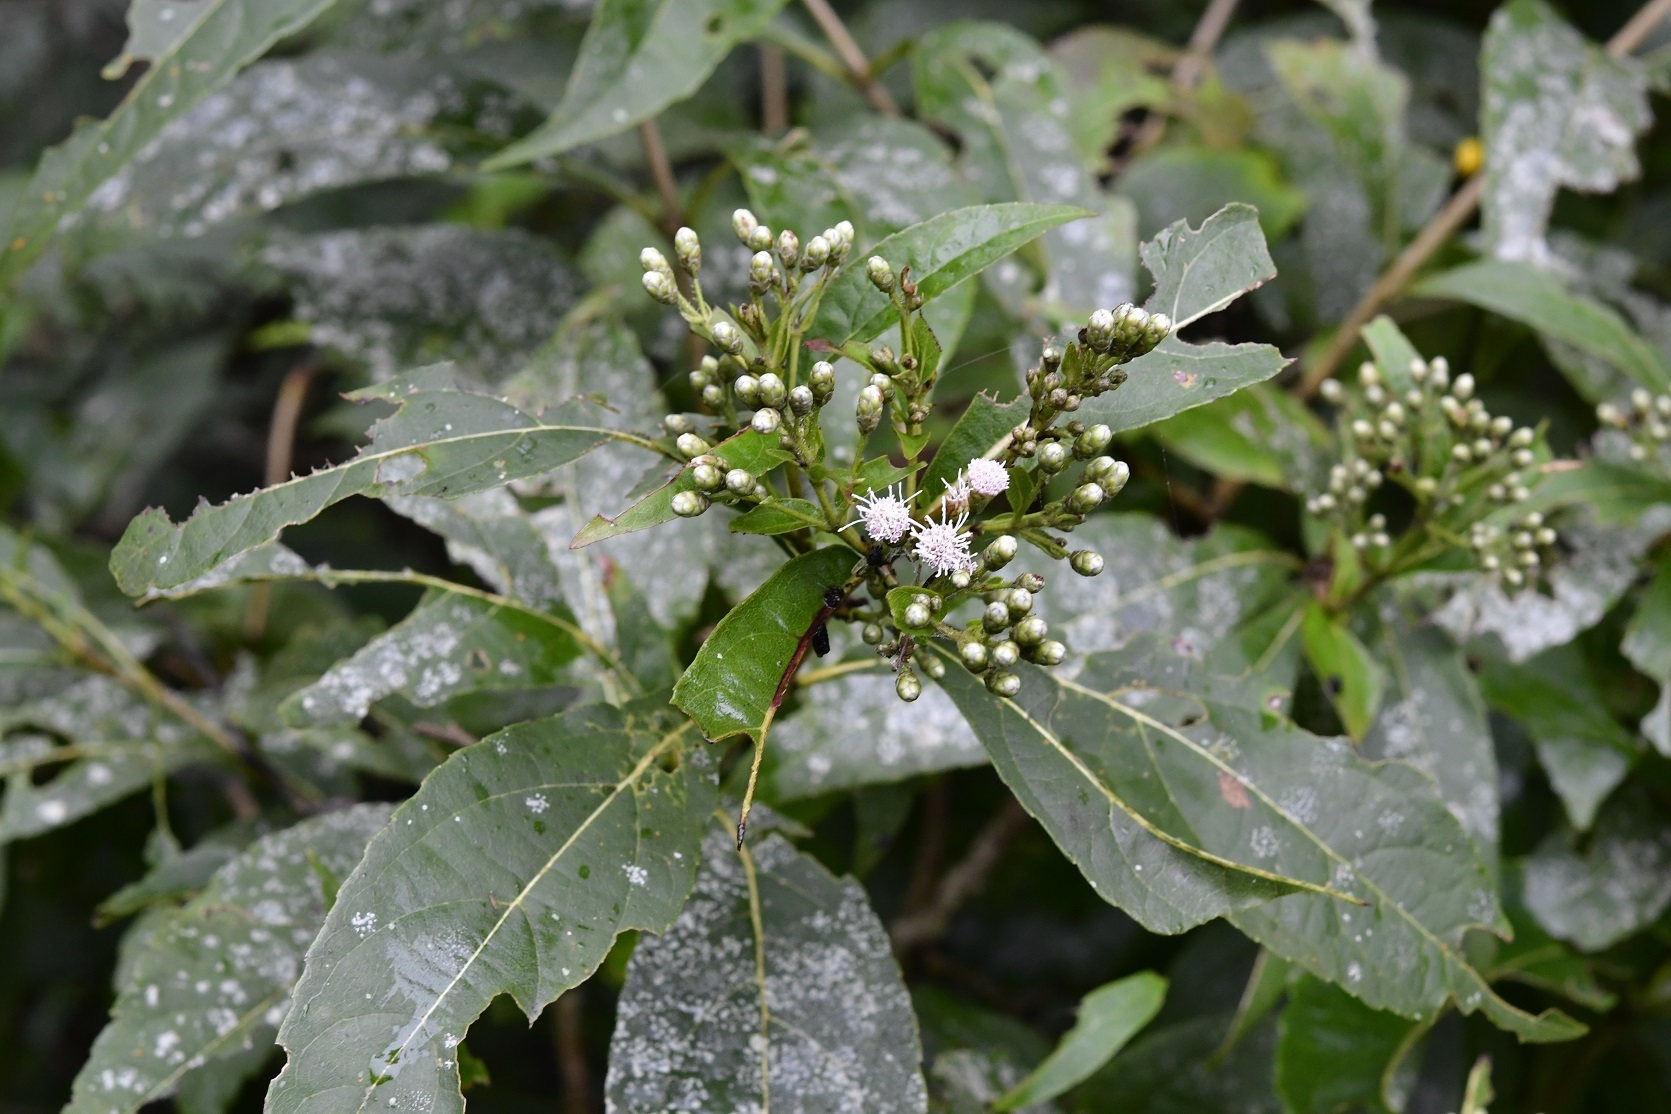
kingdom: Plantae
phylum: Tracheophyta
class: Magnoliopsida
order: Asterales
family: Asteraceae
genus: Chromolaena
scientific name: Chromolaena glaberrima
